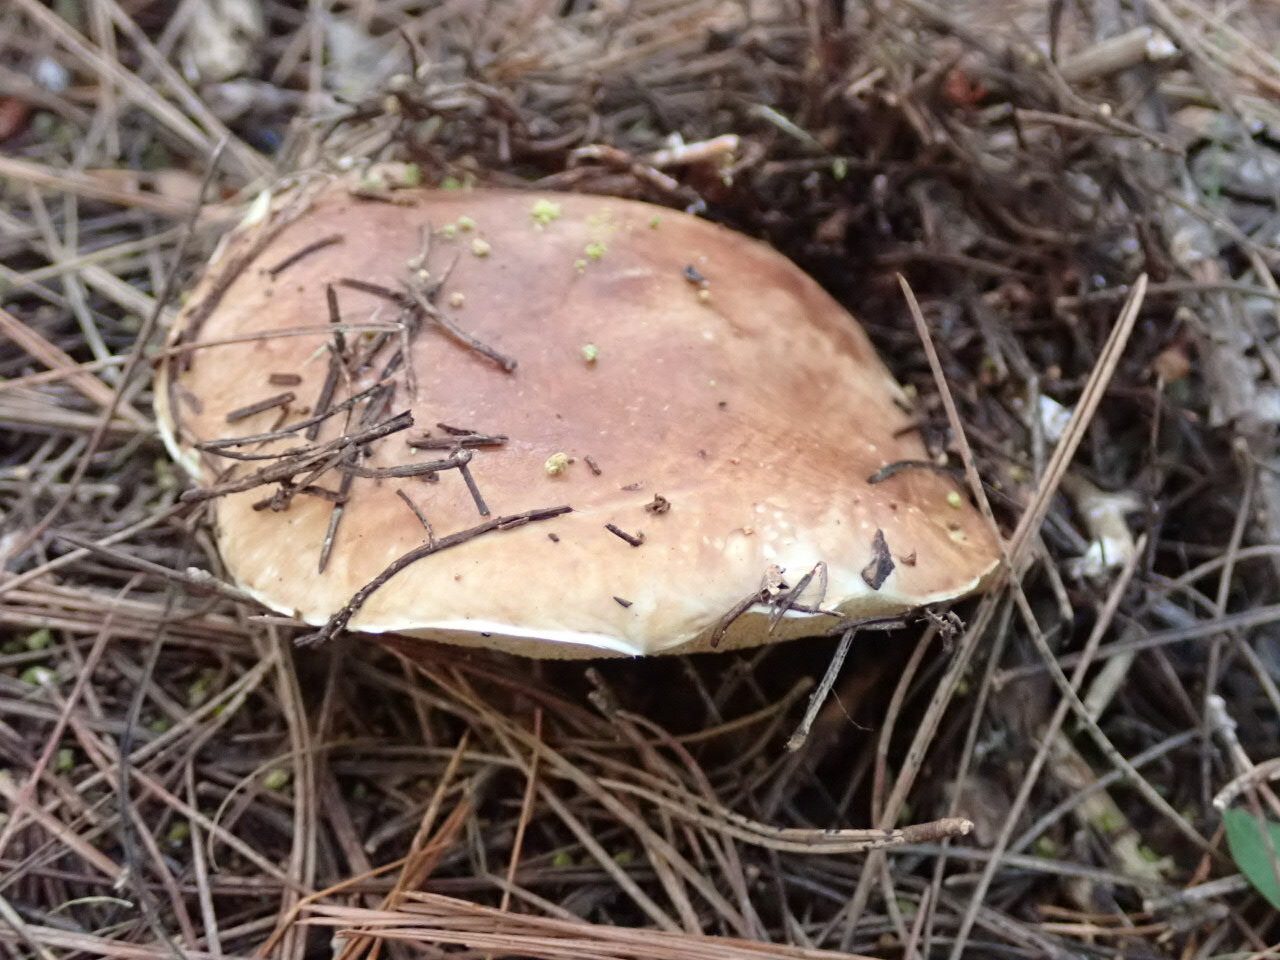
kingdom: Fungi
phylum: Basidiomycota
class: Agaricomycetes
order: Boletales
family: Suillaceae
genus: Suillus
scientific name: Suillus bellinii
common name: Champagne bolete
